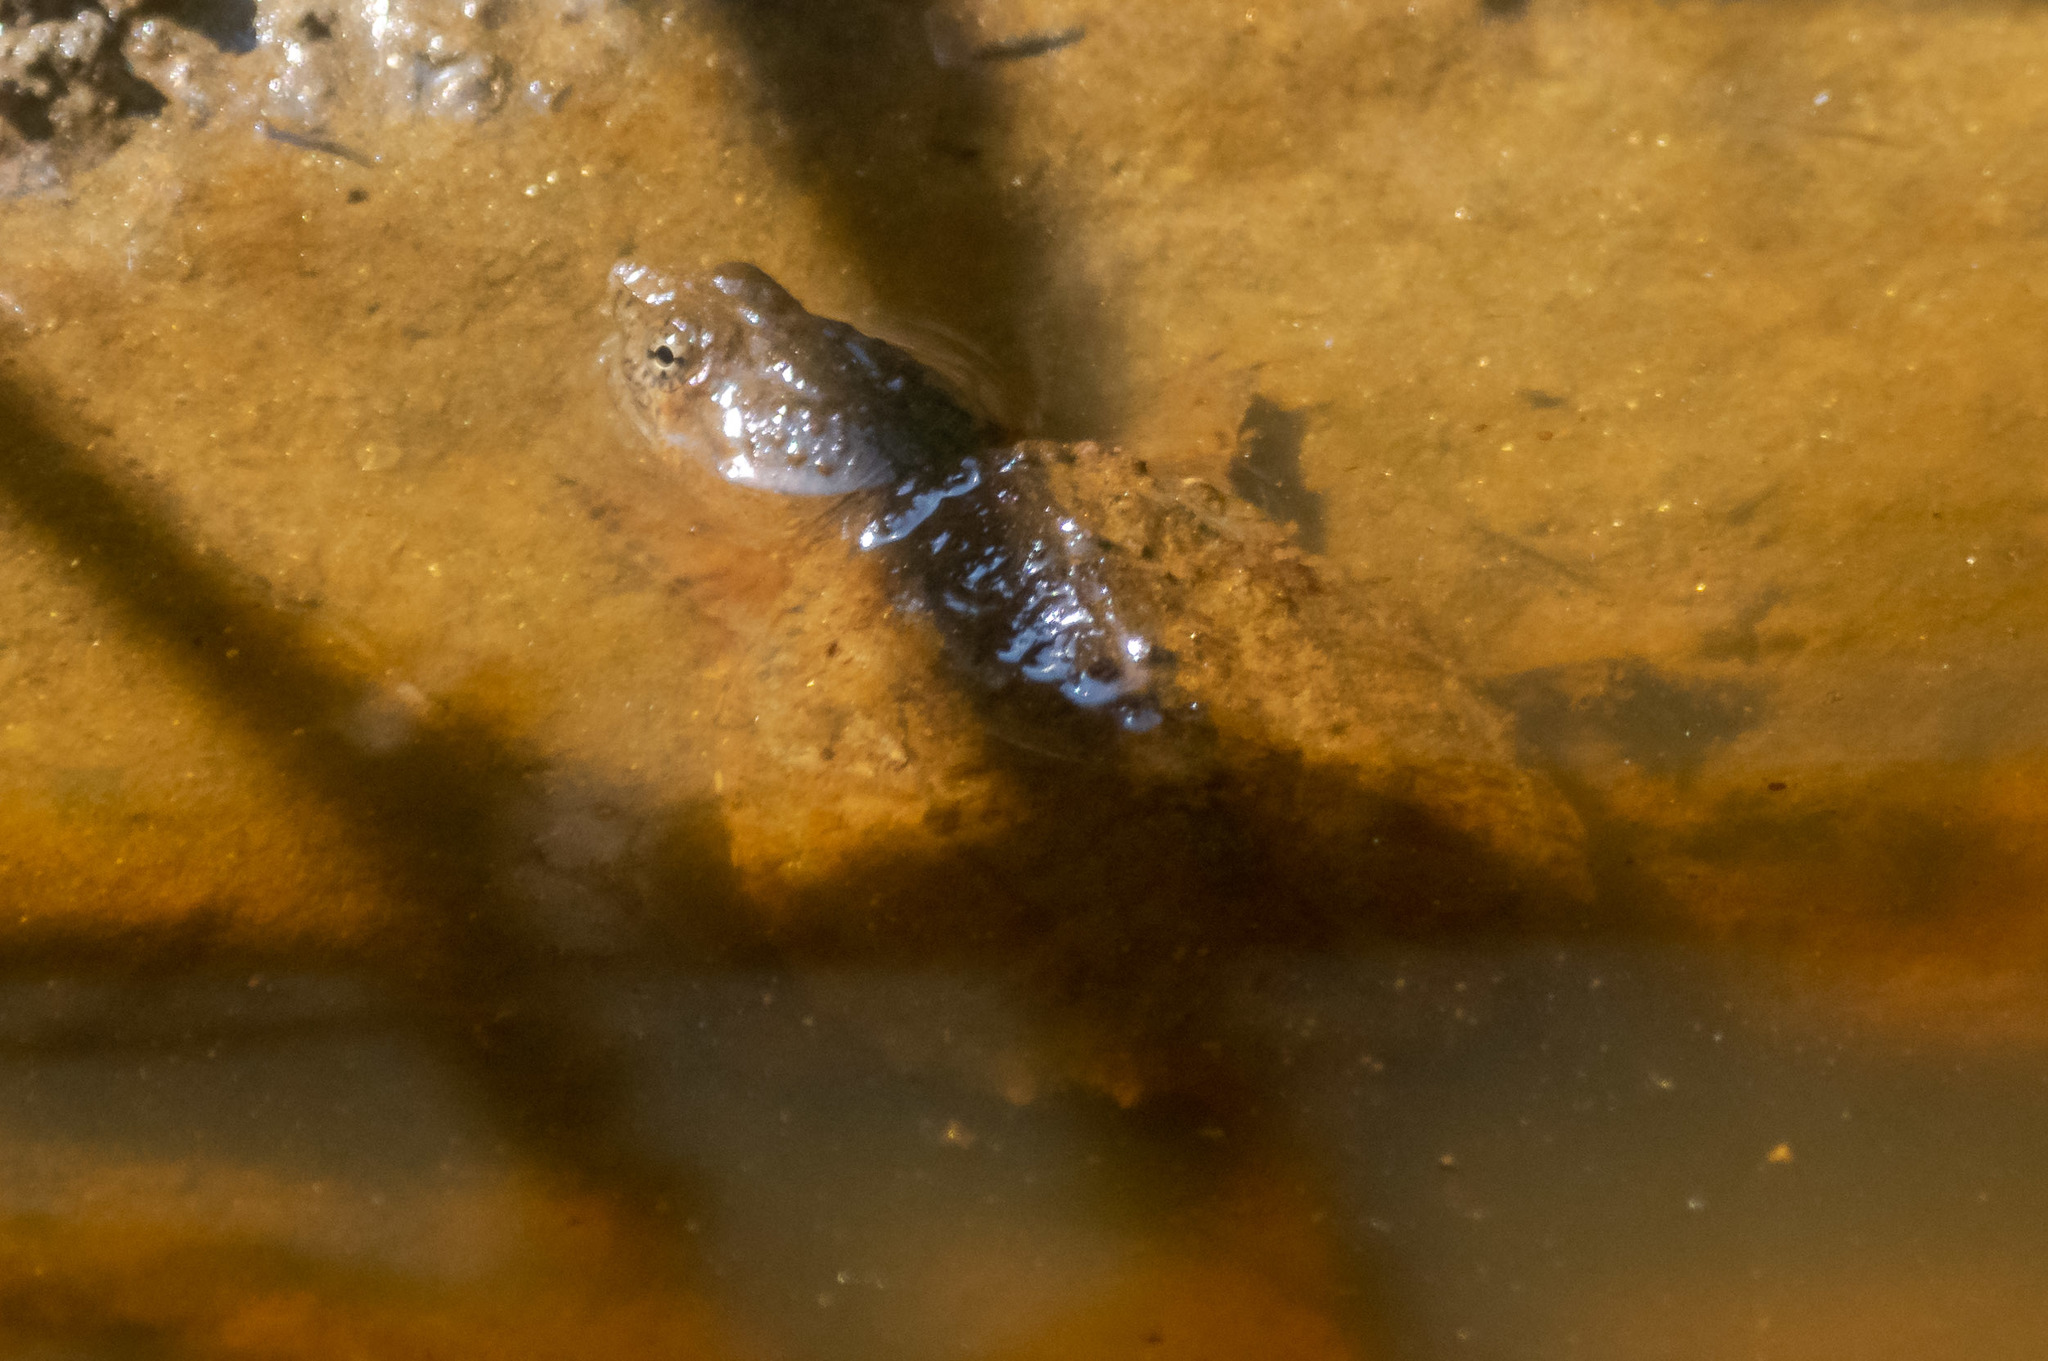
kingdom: Animalia
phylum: Chordata
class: Testudines
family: Chelydridae
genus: Chelydra
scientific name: Chelydra serpentina
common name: Common snapping turtle
